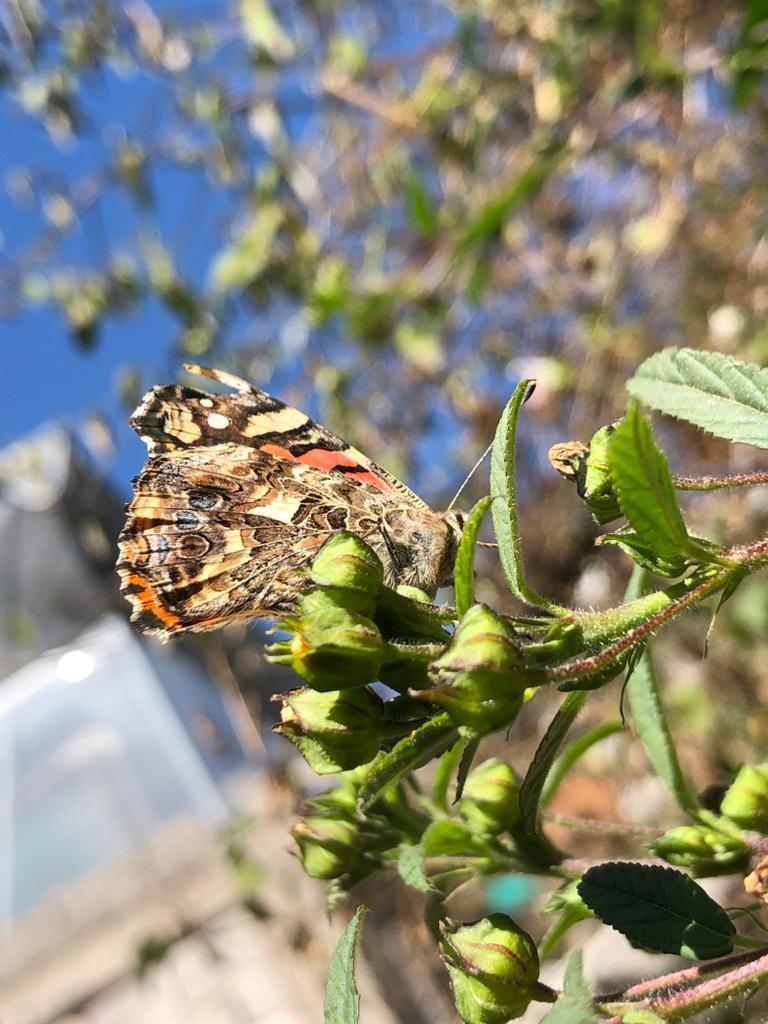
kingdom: Animalia
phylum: Arthropoda
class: Insecta
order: Lepidoptera
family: Nymphalidae
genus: Vanessa
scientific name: Vanessa carye
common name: Subtropical lady
